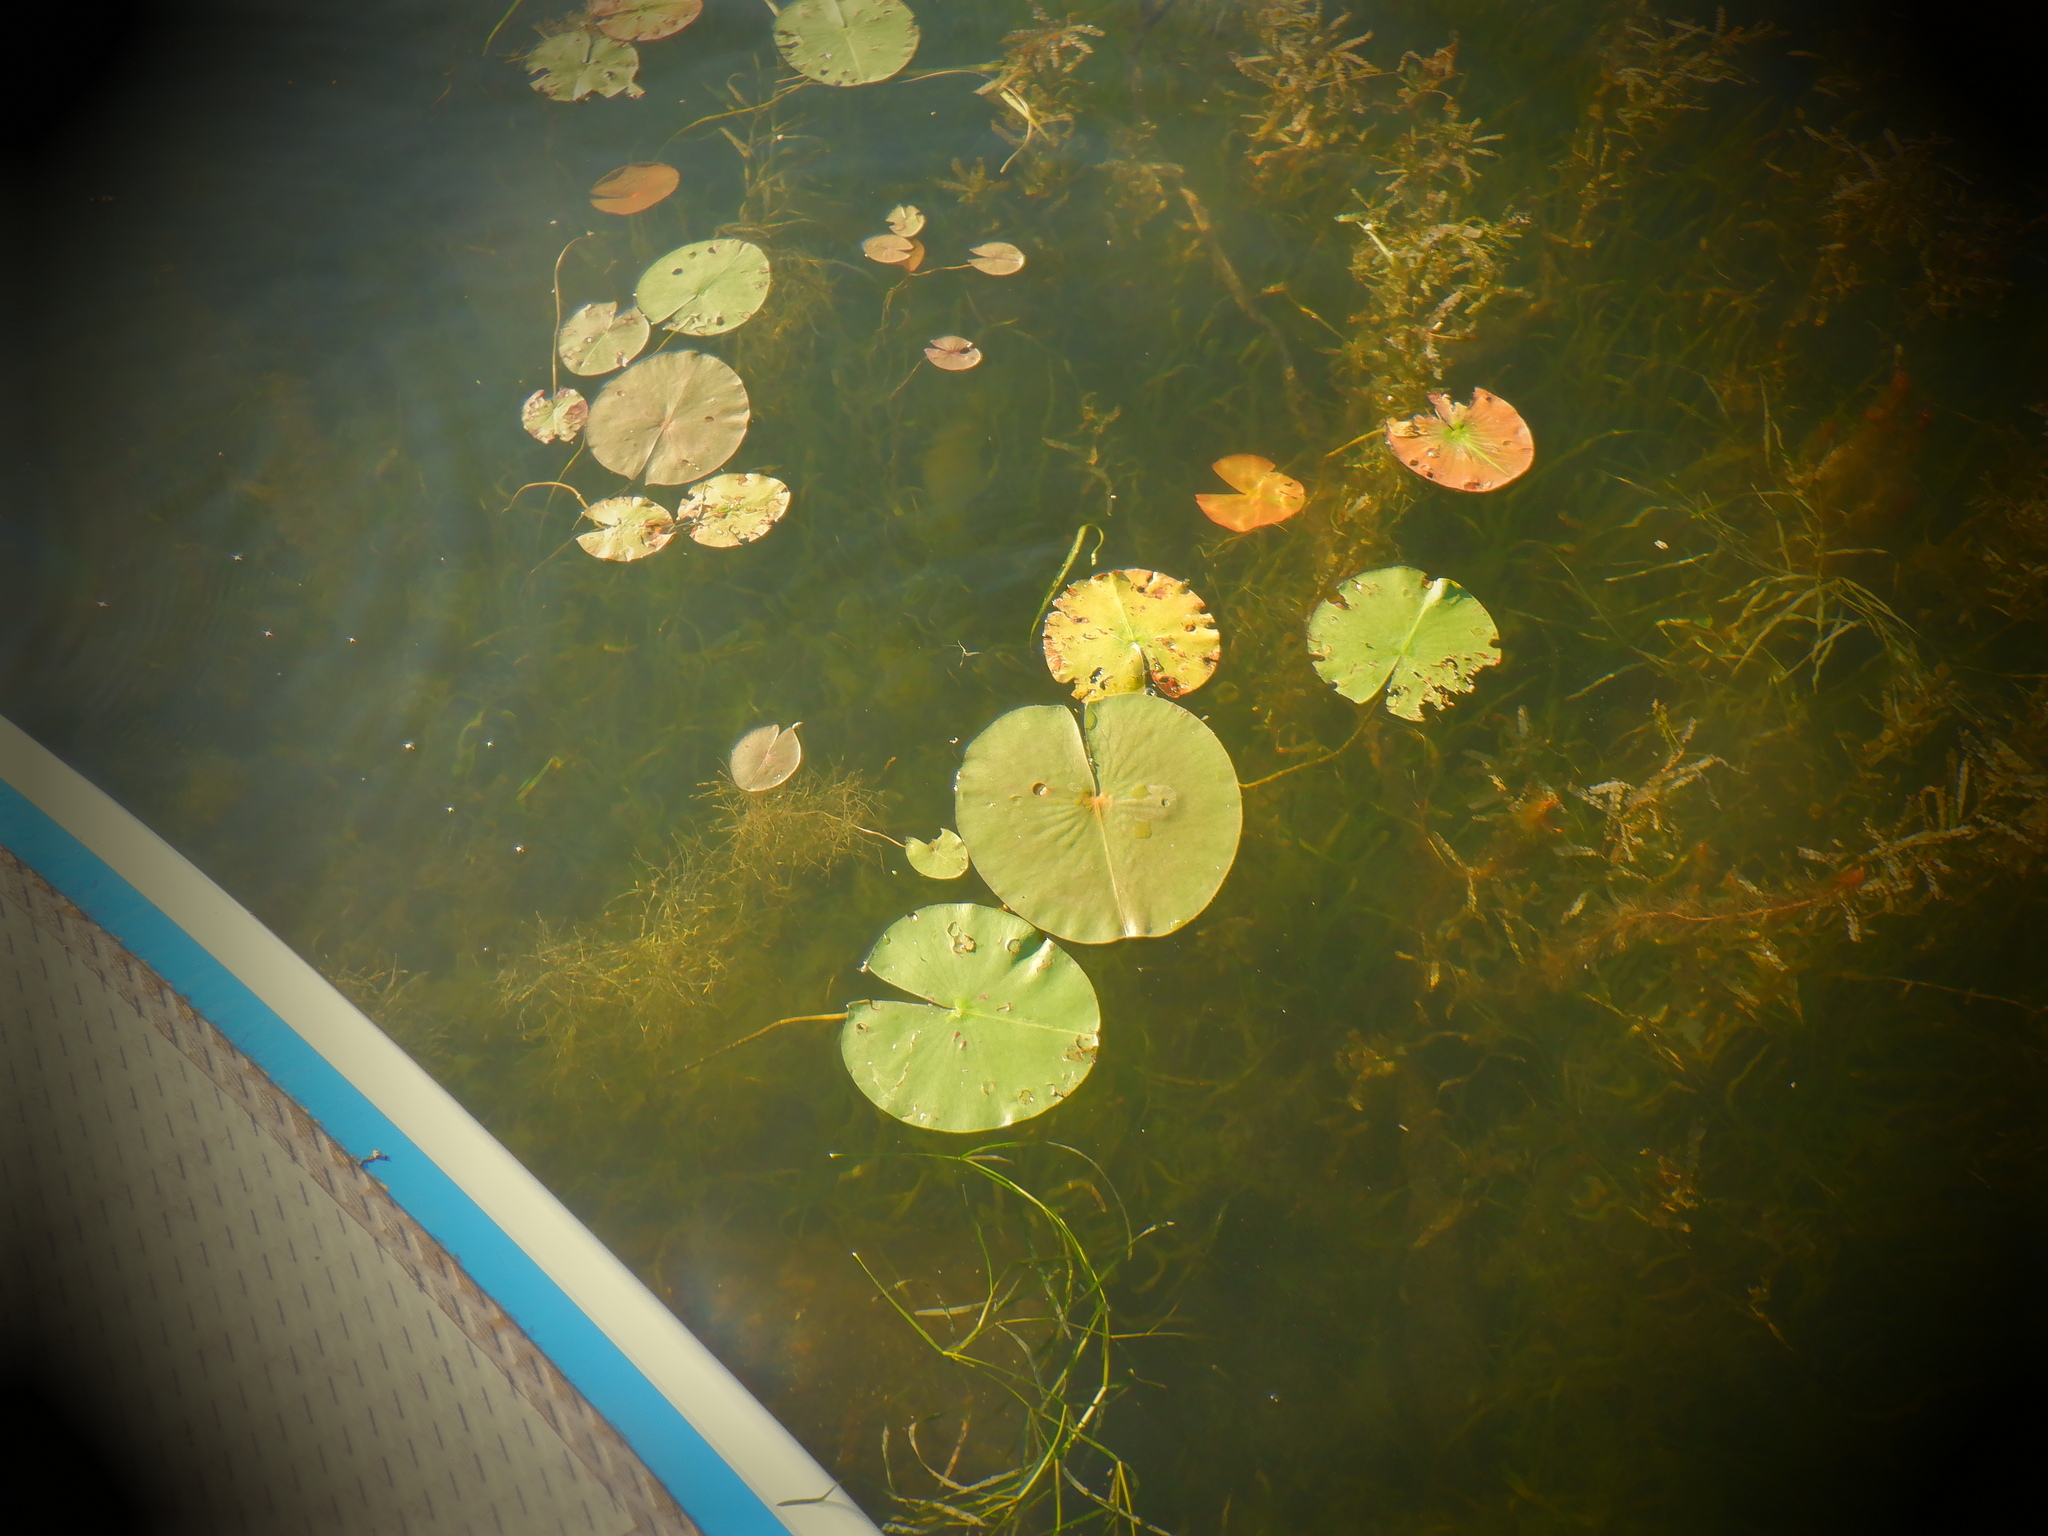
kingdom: Plantae
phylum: Tracheophyta
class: Magnoliopsida
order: Nymphaeales
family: Nymphaeaceae
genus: Nymphaea
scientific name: Nymphaea odorata
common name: Fragrant water-lily
